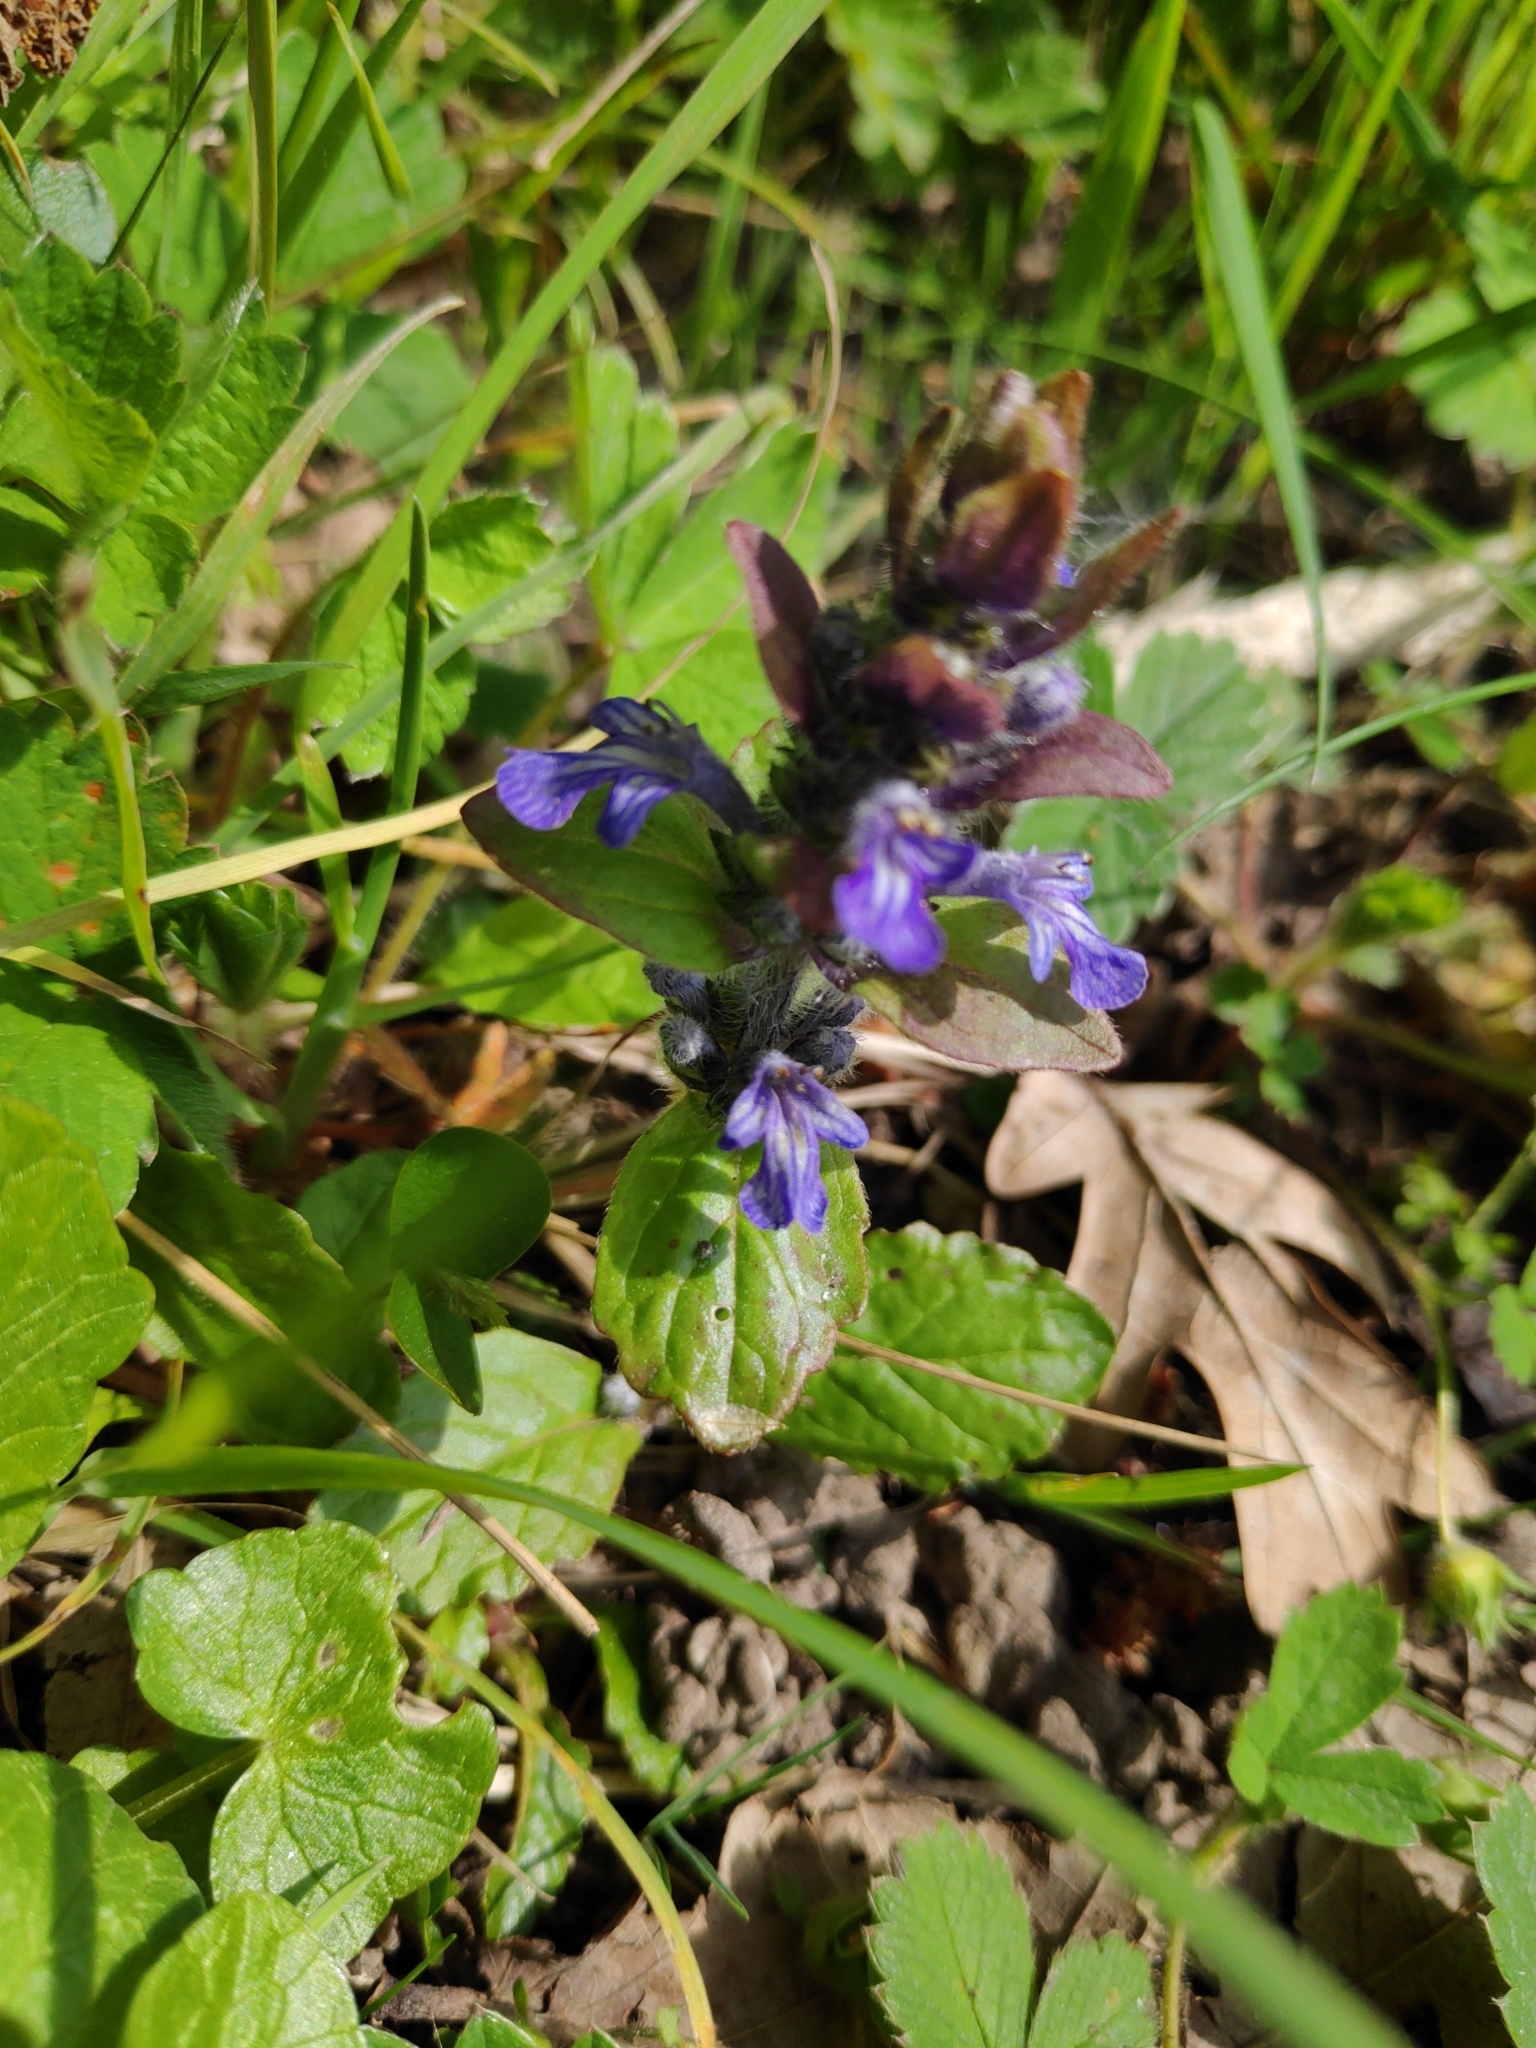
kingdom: Plantae
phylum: Tracheophyta
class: Magnoliopsida
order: Lamiales
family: Lamiaceae
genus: Ajuga
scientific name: Ajuga reptans
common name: Bugle
